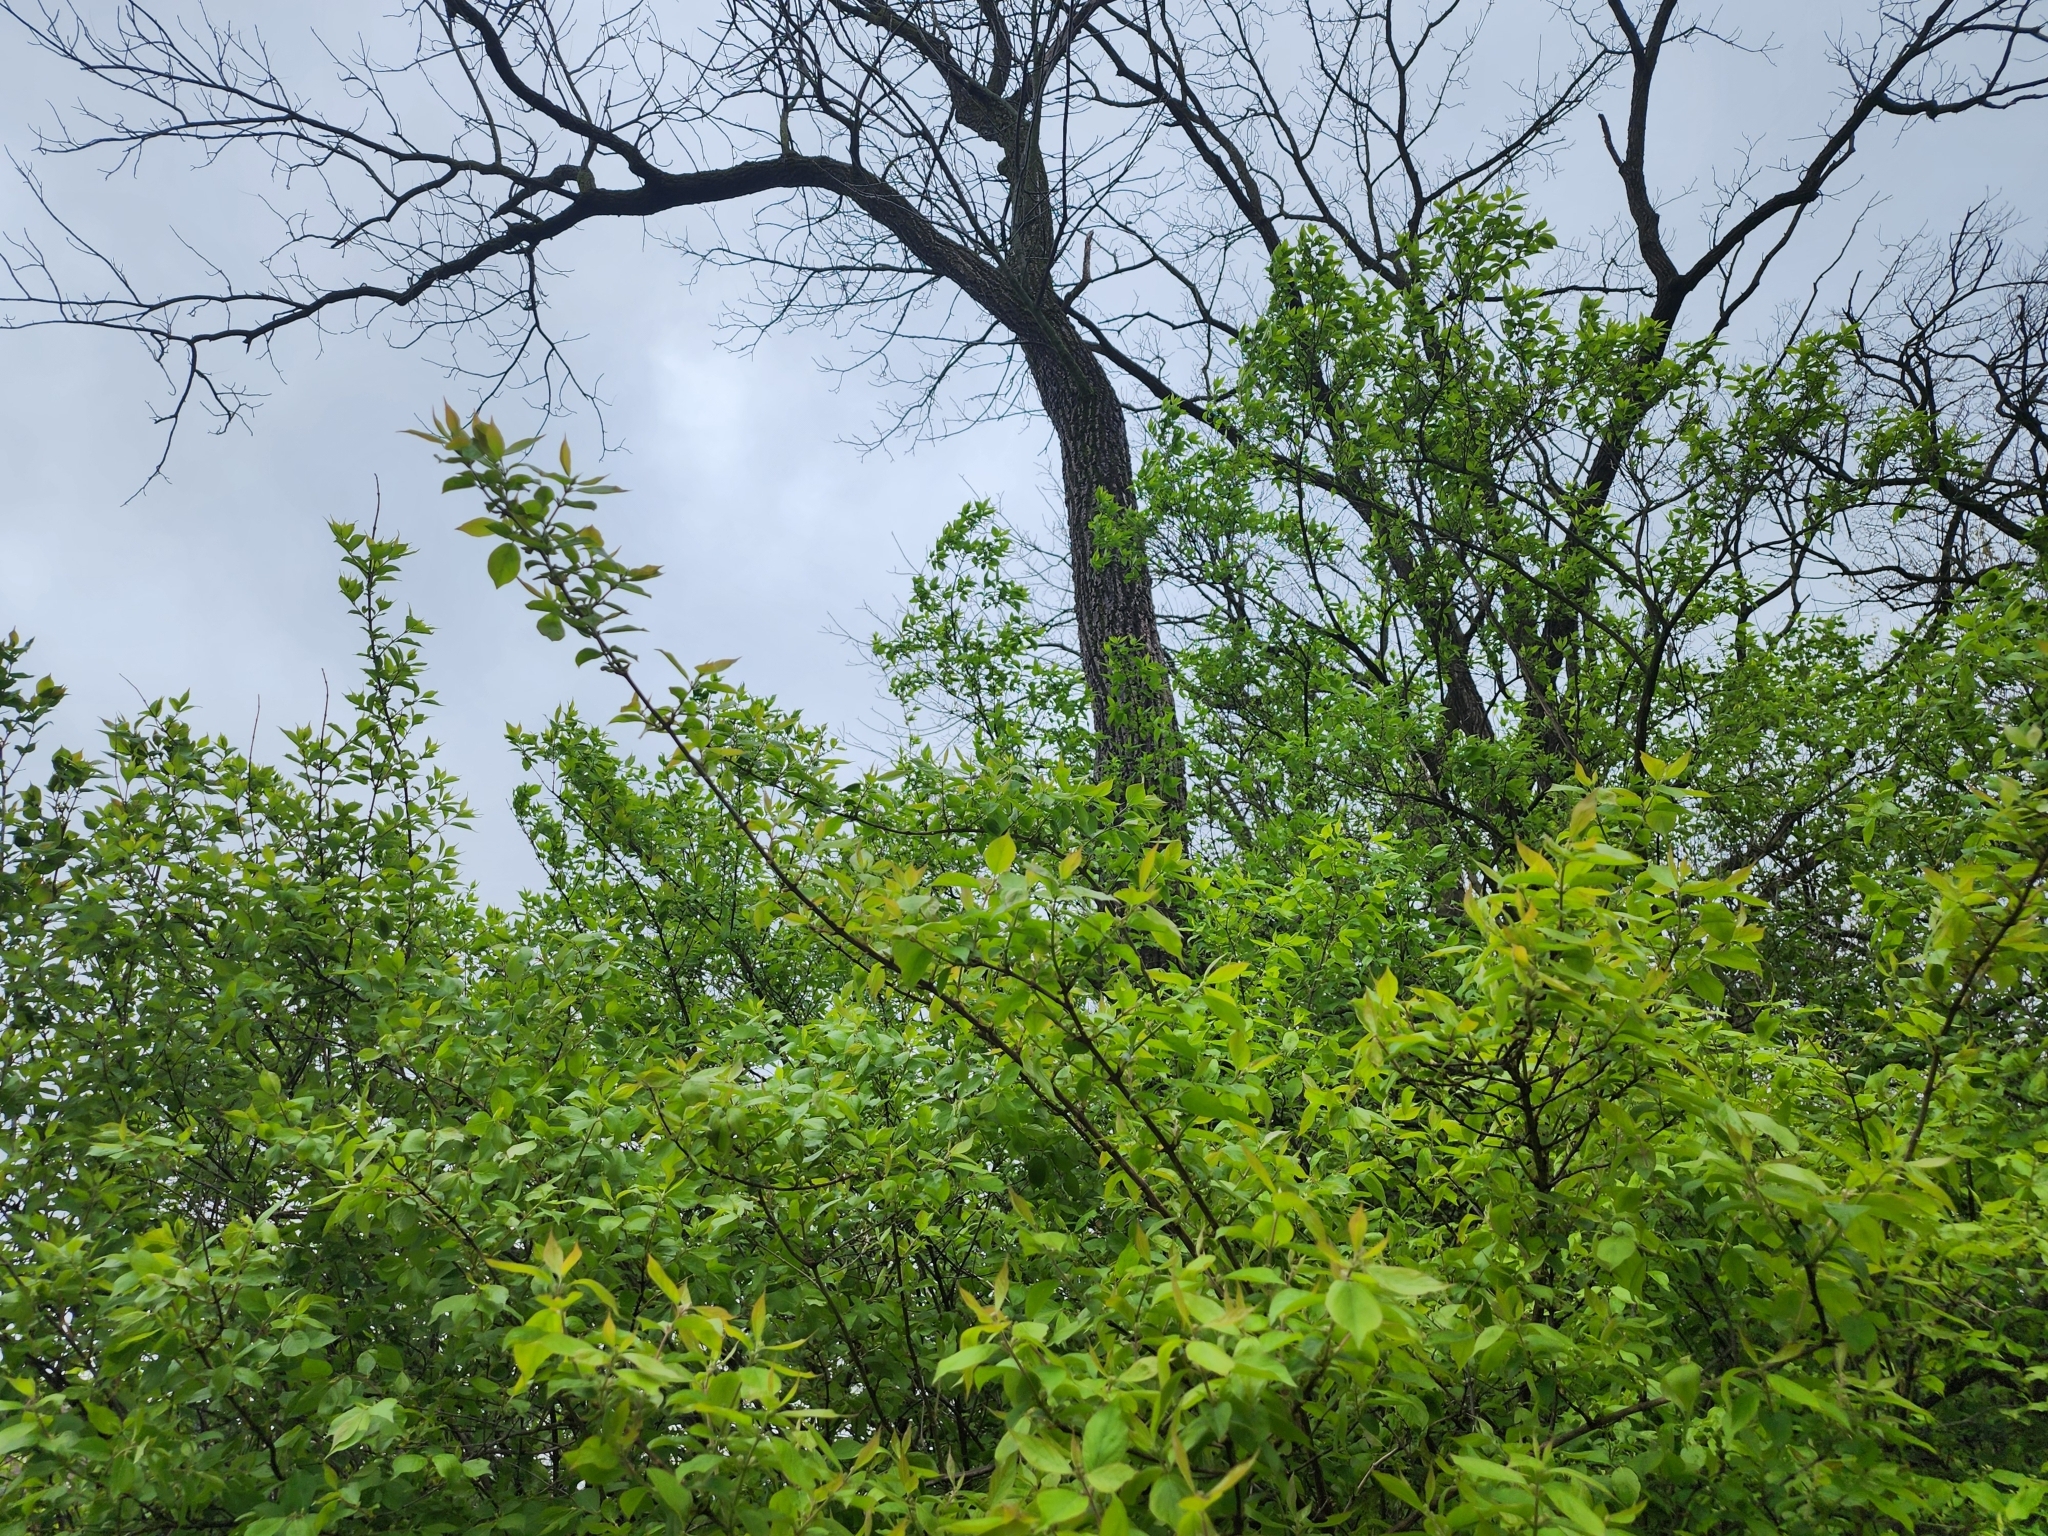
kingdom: Plantae
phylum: Tracheophyta
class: Magnoliopsida
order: Dipsacales
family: Caprifoliaceae
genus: Lonicera
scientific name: Lonicera maackii
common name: Amur honeysuckle
